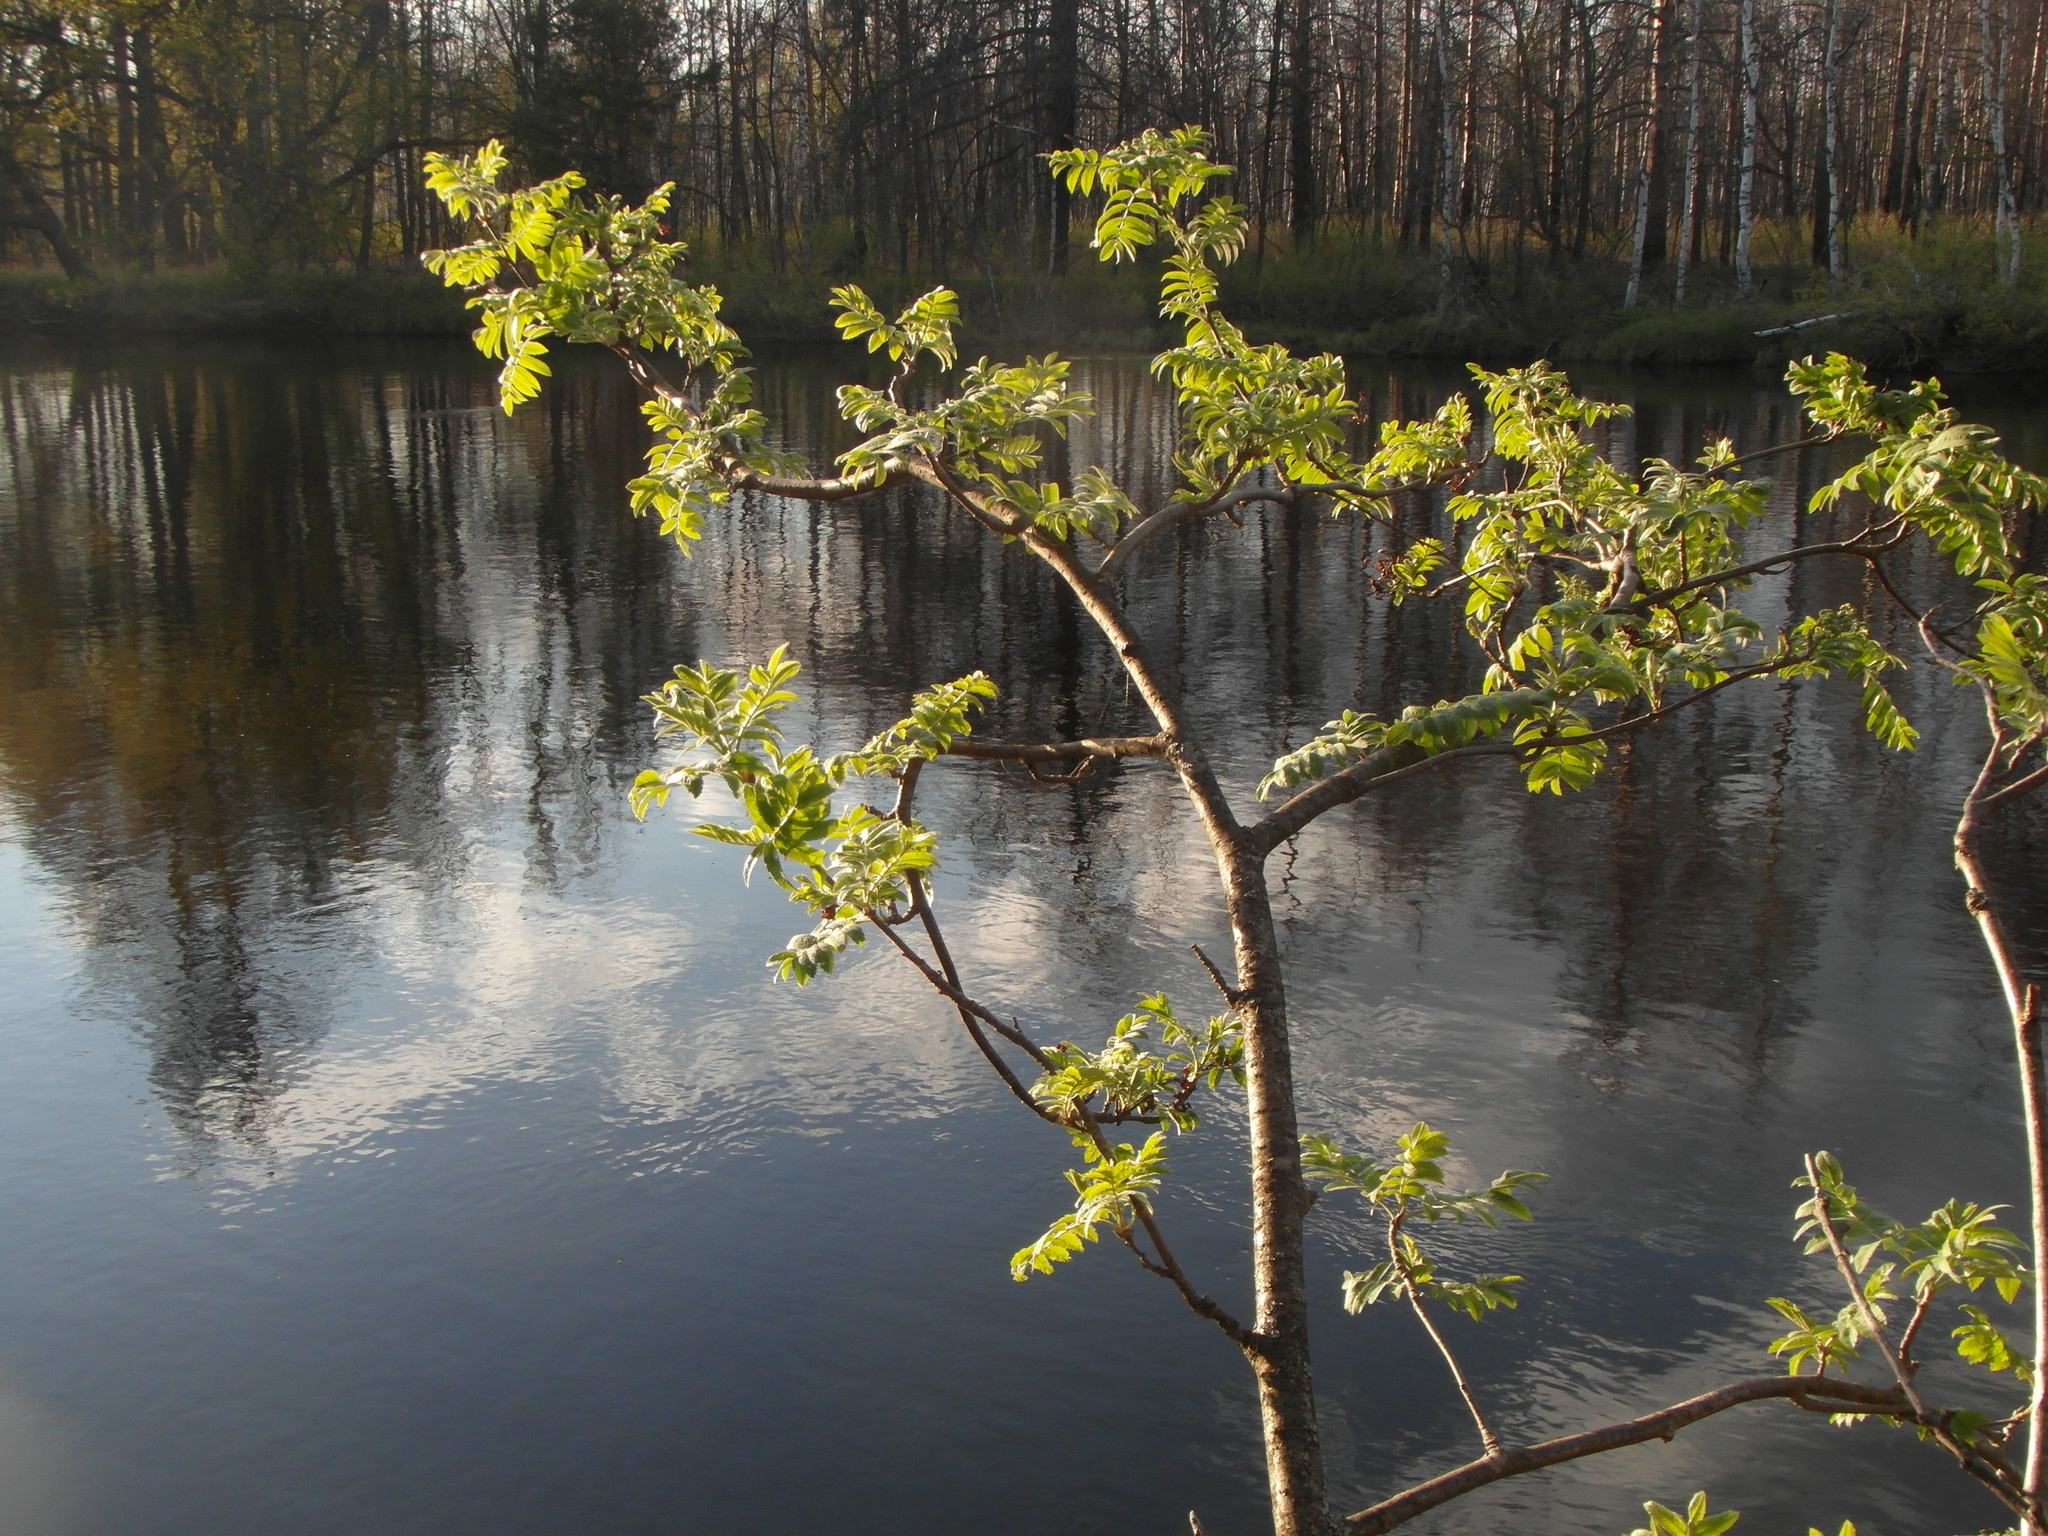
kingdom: Plantae
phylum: Tracheophyta
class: Magnoliopsida
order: Rosales
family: Rosaceae
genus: Sorbus
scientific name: Sorbus aucuparia
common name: Rowan
